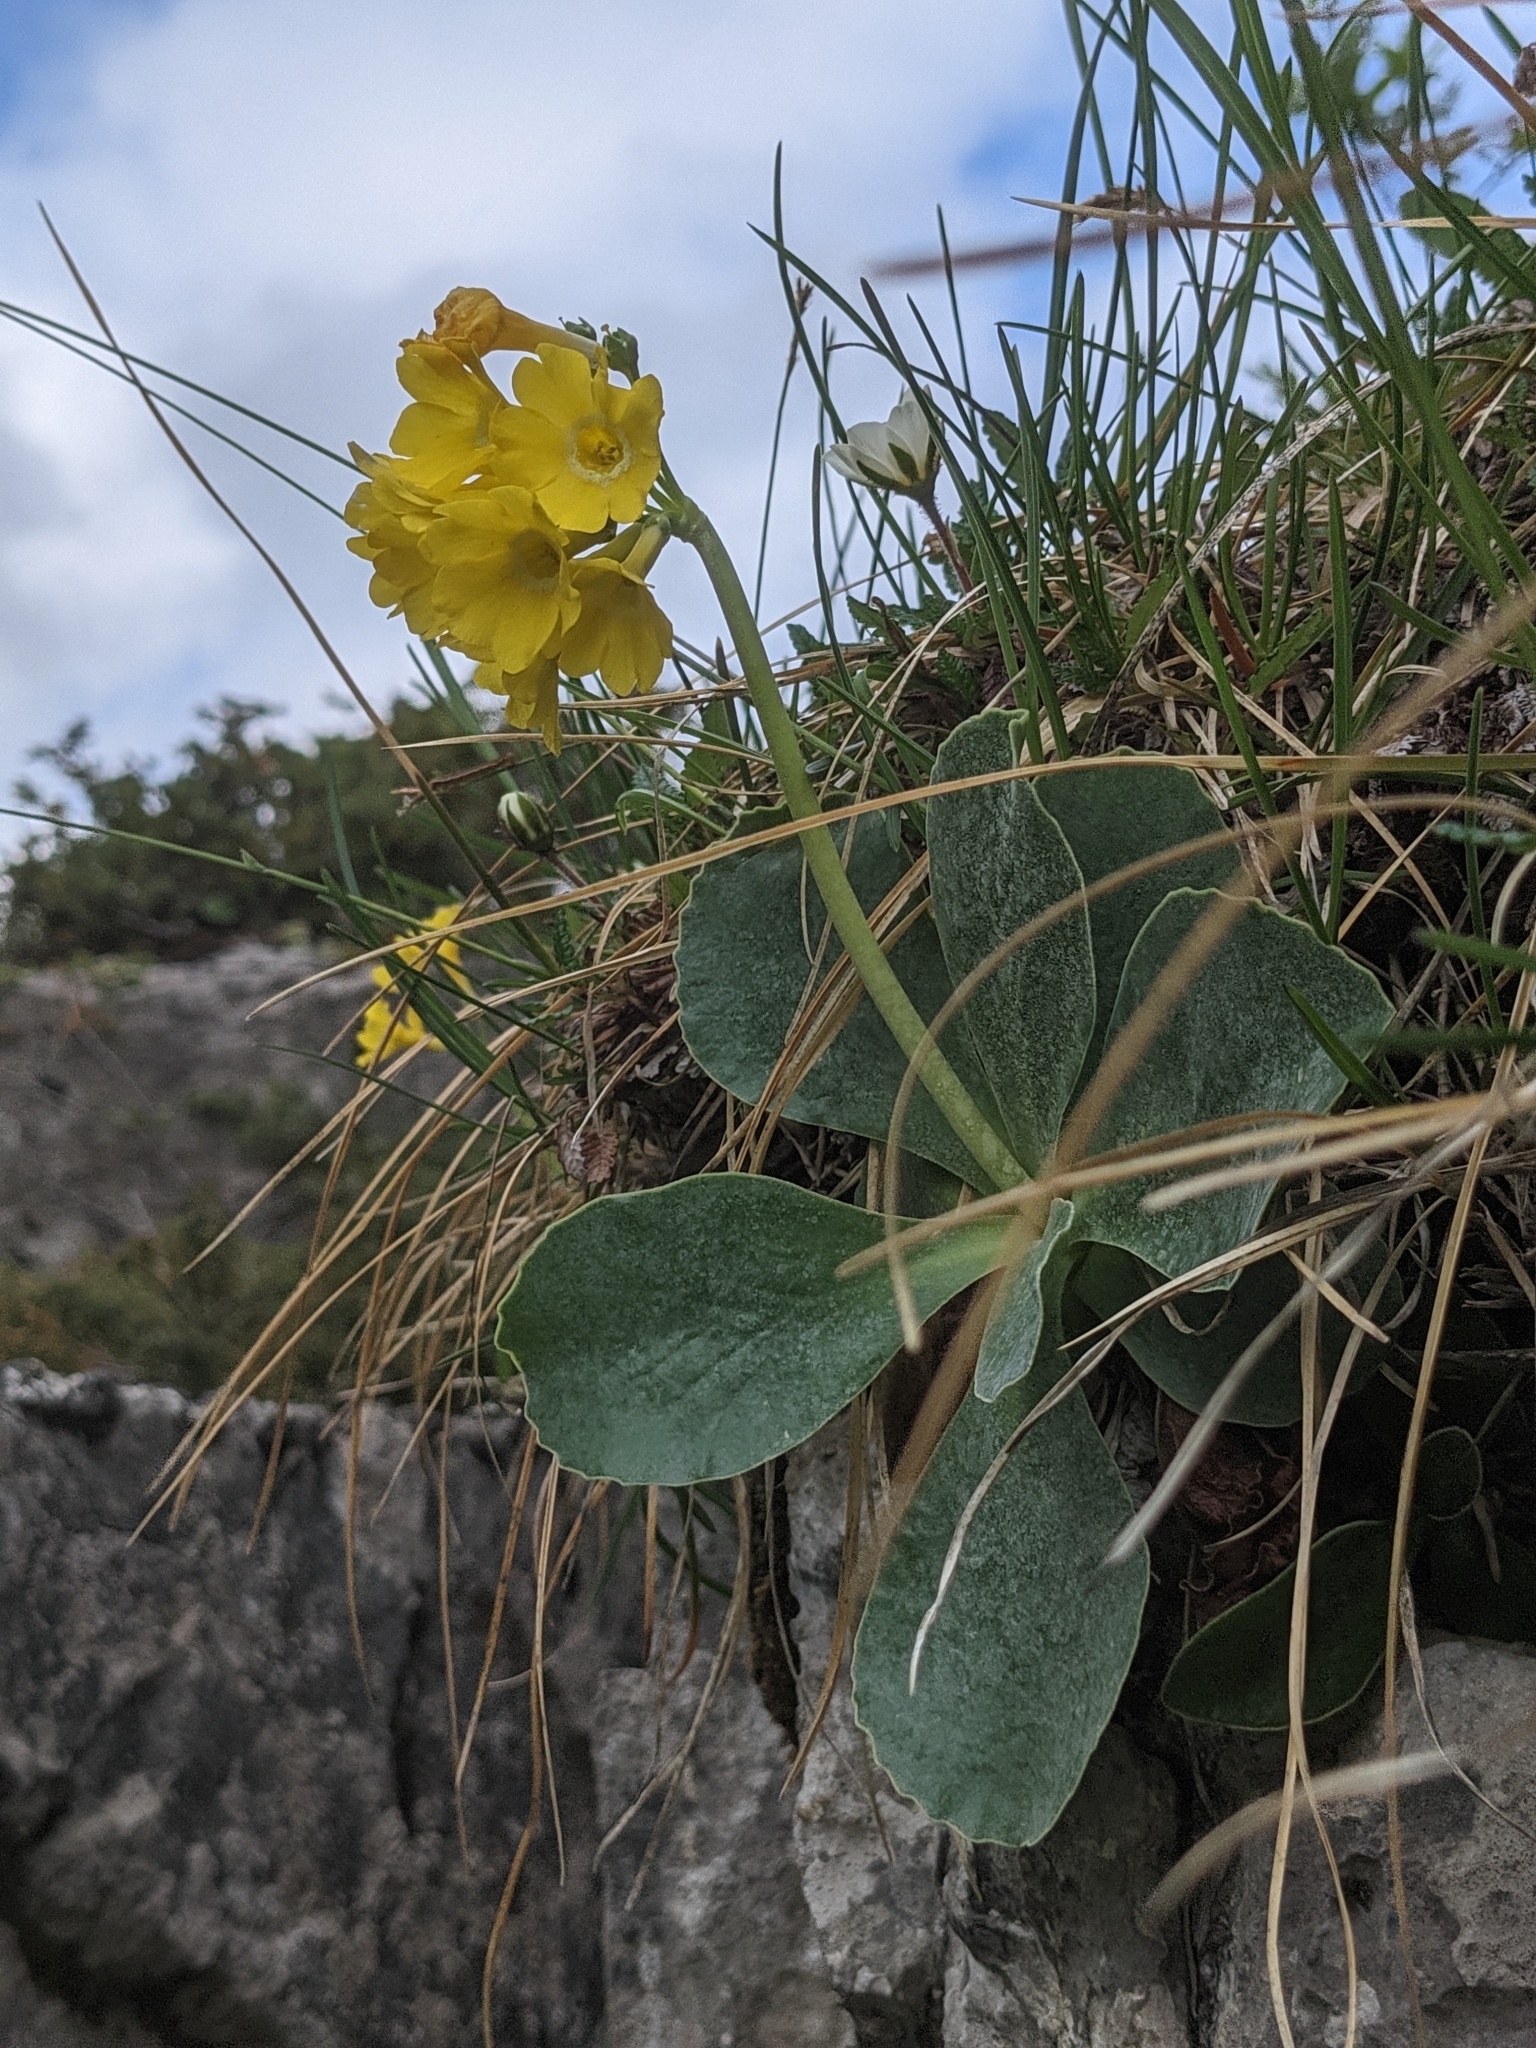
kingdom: Plantae
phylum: Tracheophyta
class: Magnoliopsida
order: Ericales
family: Primulaceae
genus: Primula
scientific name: Primula auricula
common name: Auricula
